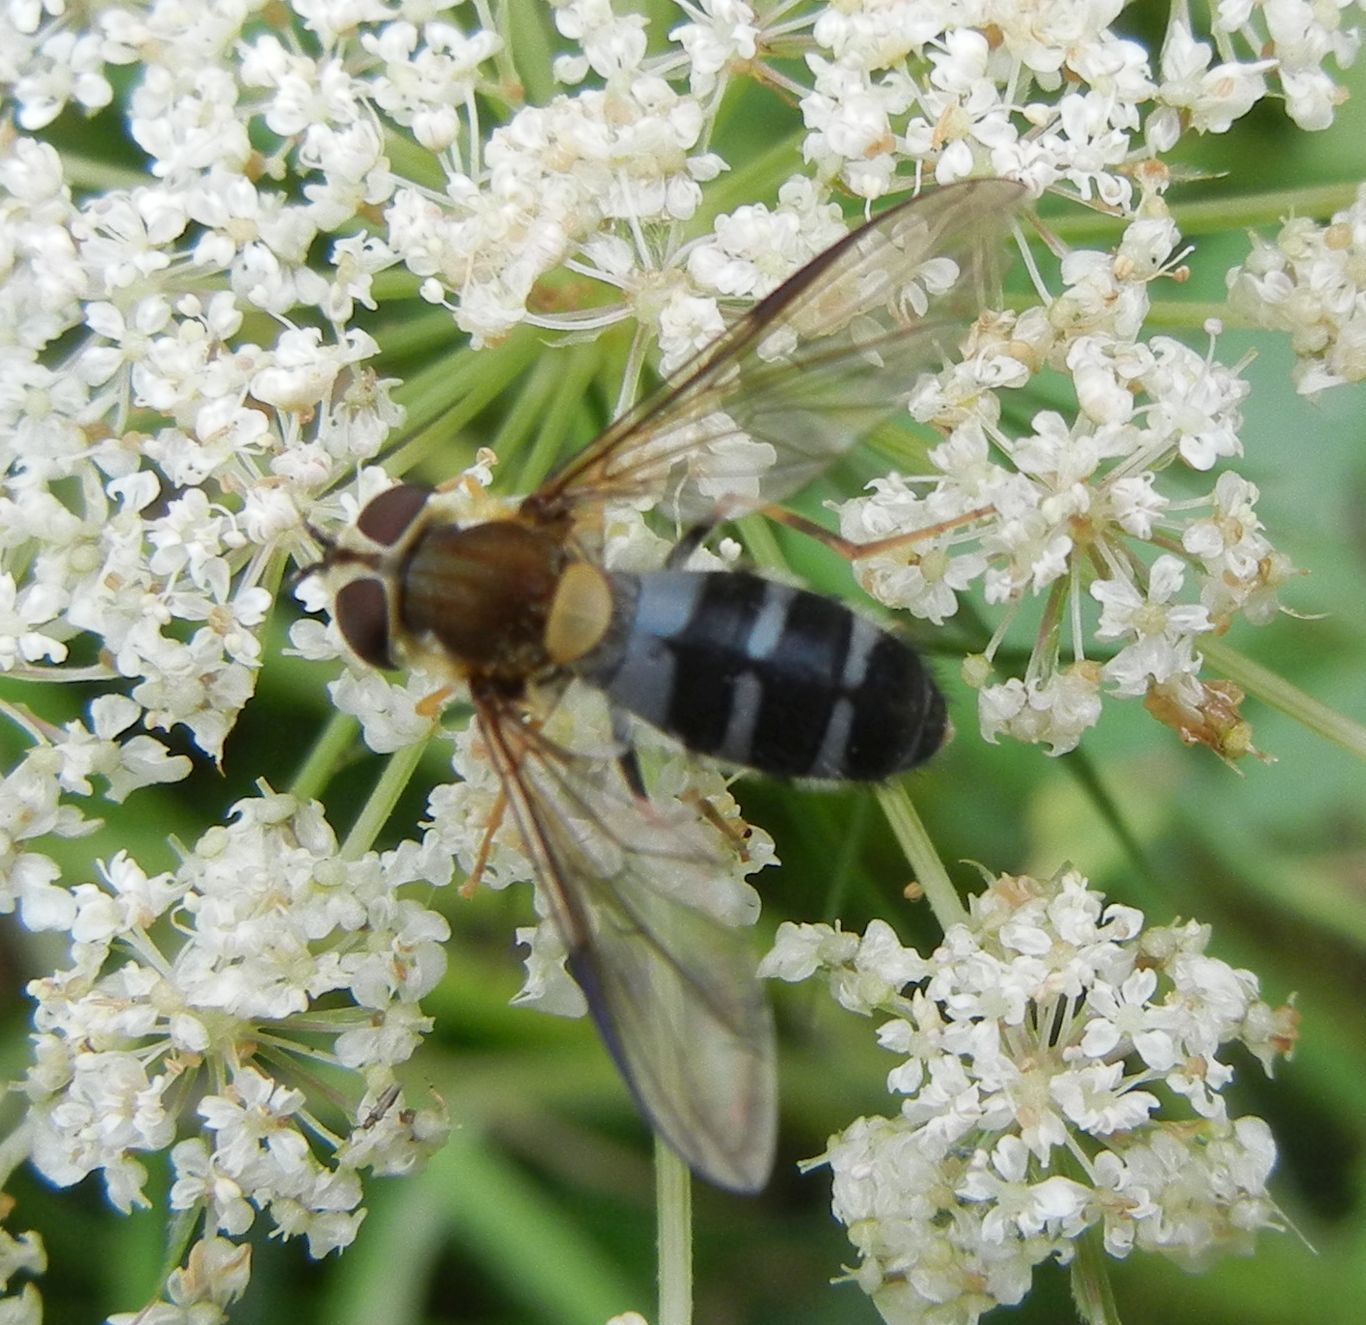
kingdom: Animalia
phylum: Arthropoda
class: Insecta
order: Diptera
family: Syrphidae
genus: Leucozona
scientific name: Leucozona glaucia
